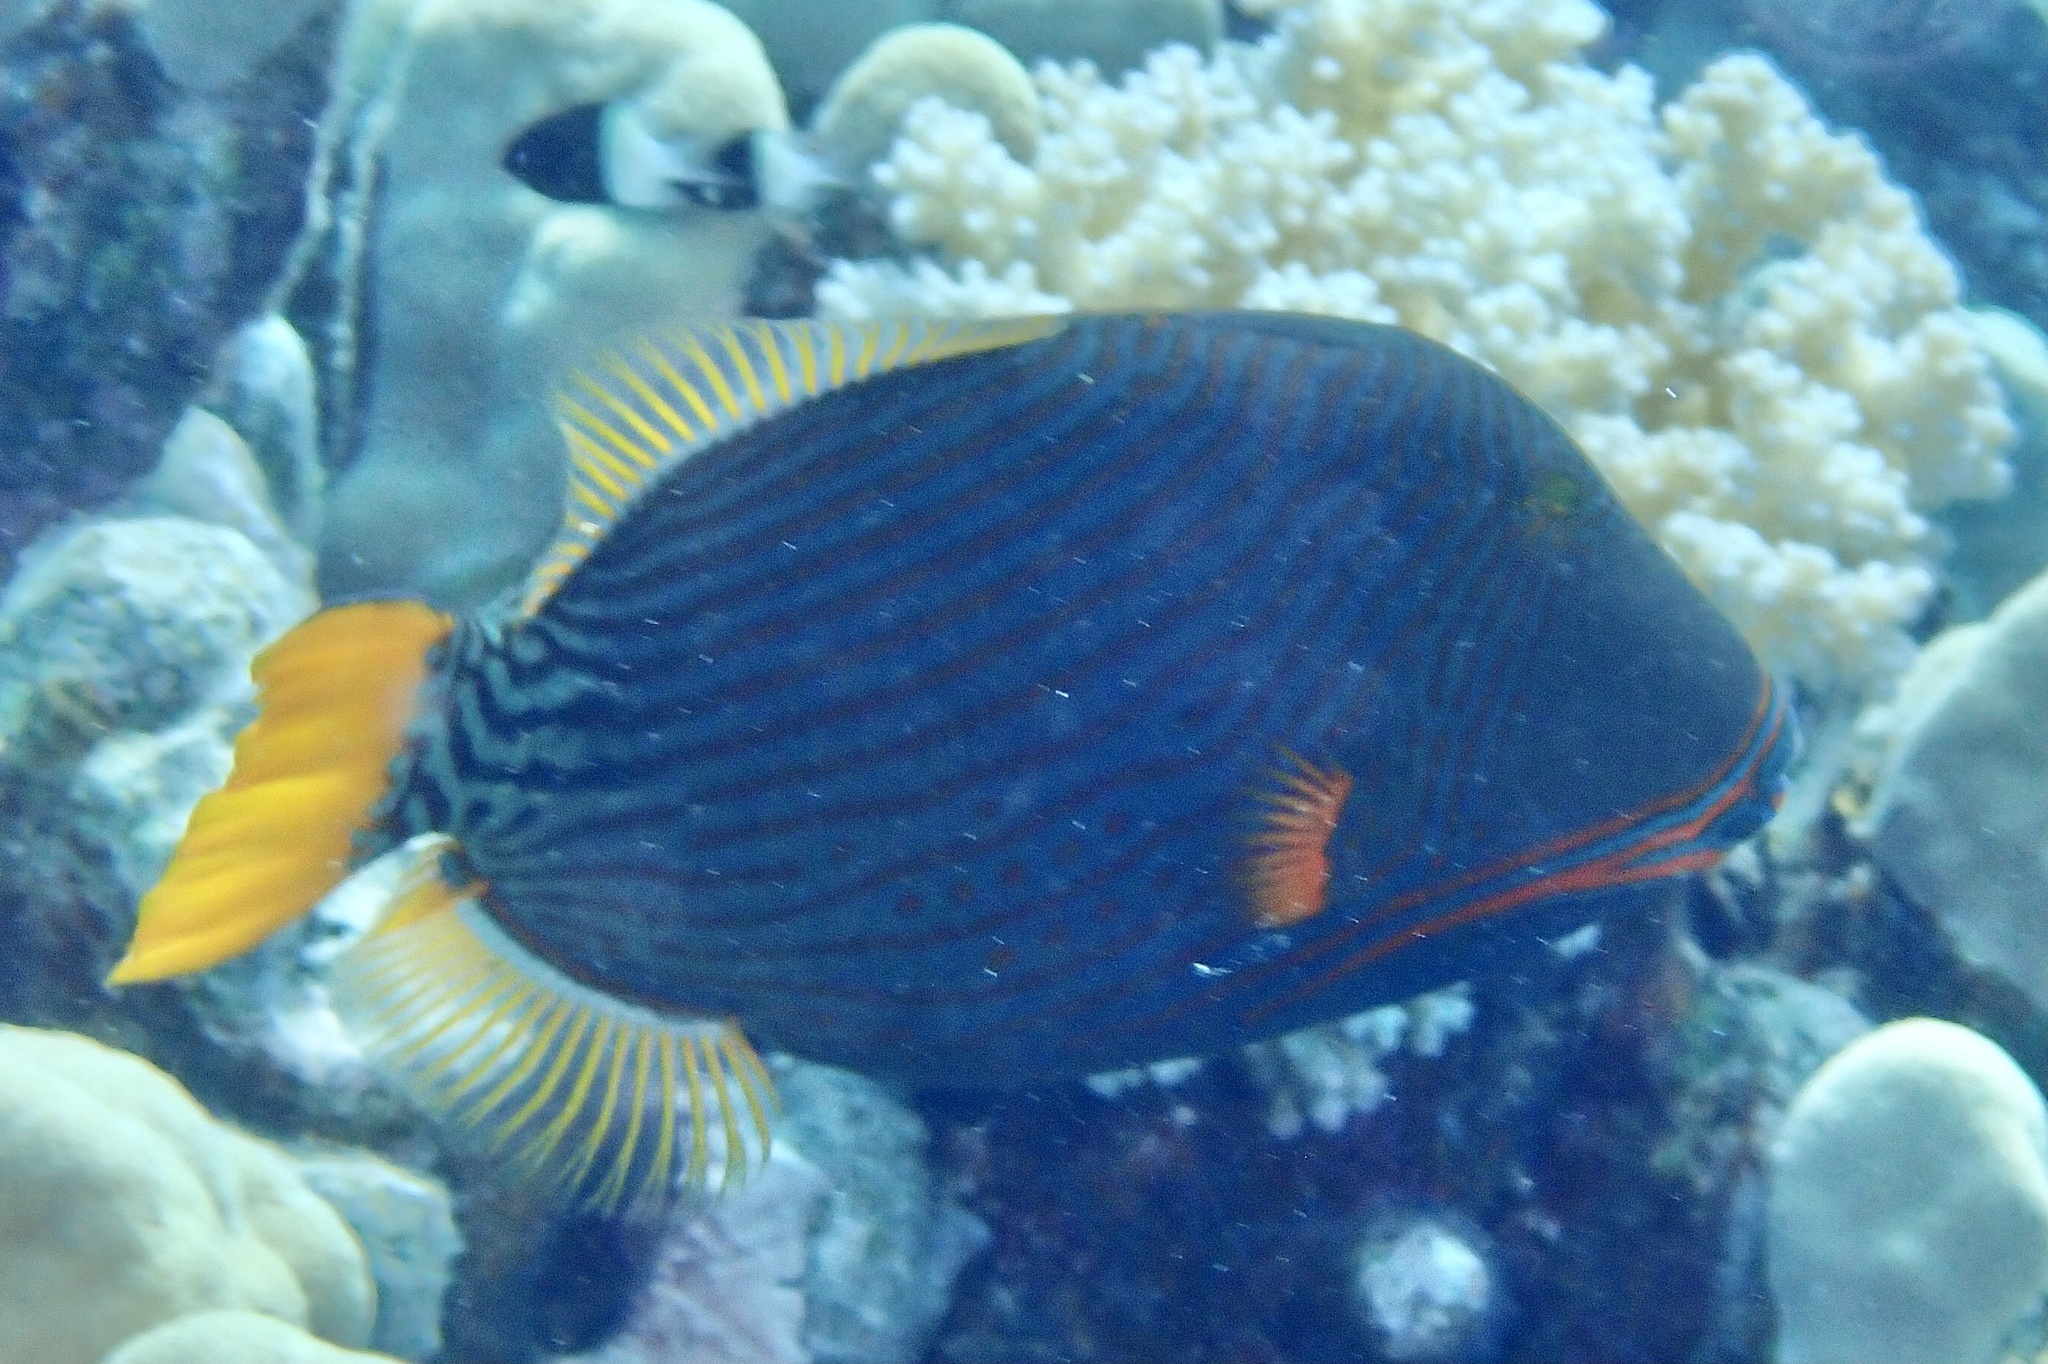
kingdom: Animalia
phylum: Chordata
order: Tetraodontiformes
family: Balistidae
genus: Balistapus
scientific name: Balistapus undulatus
